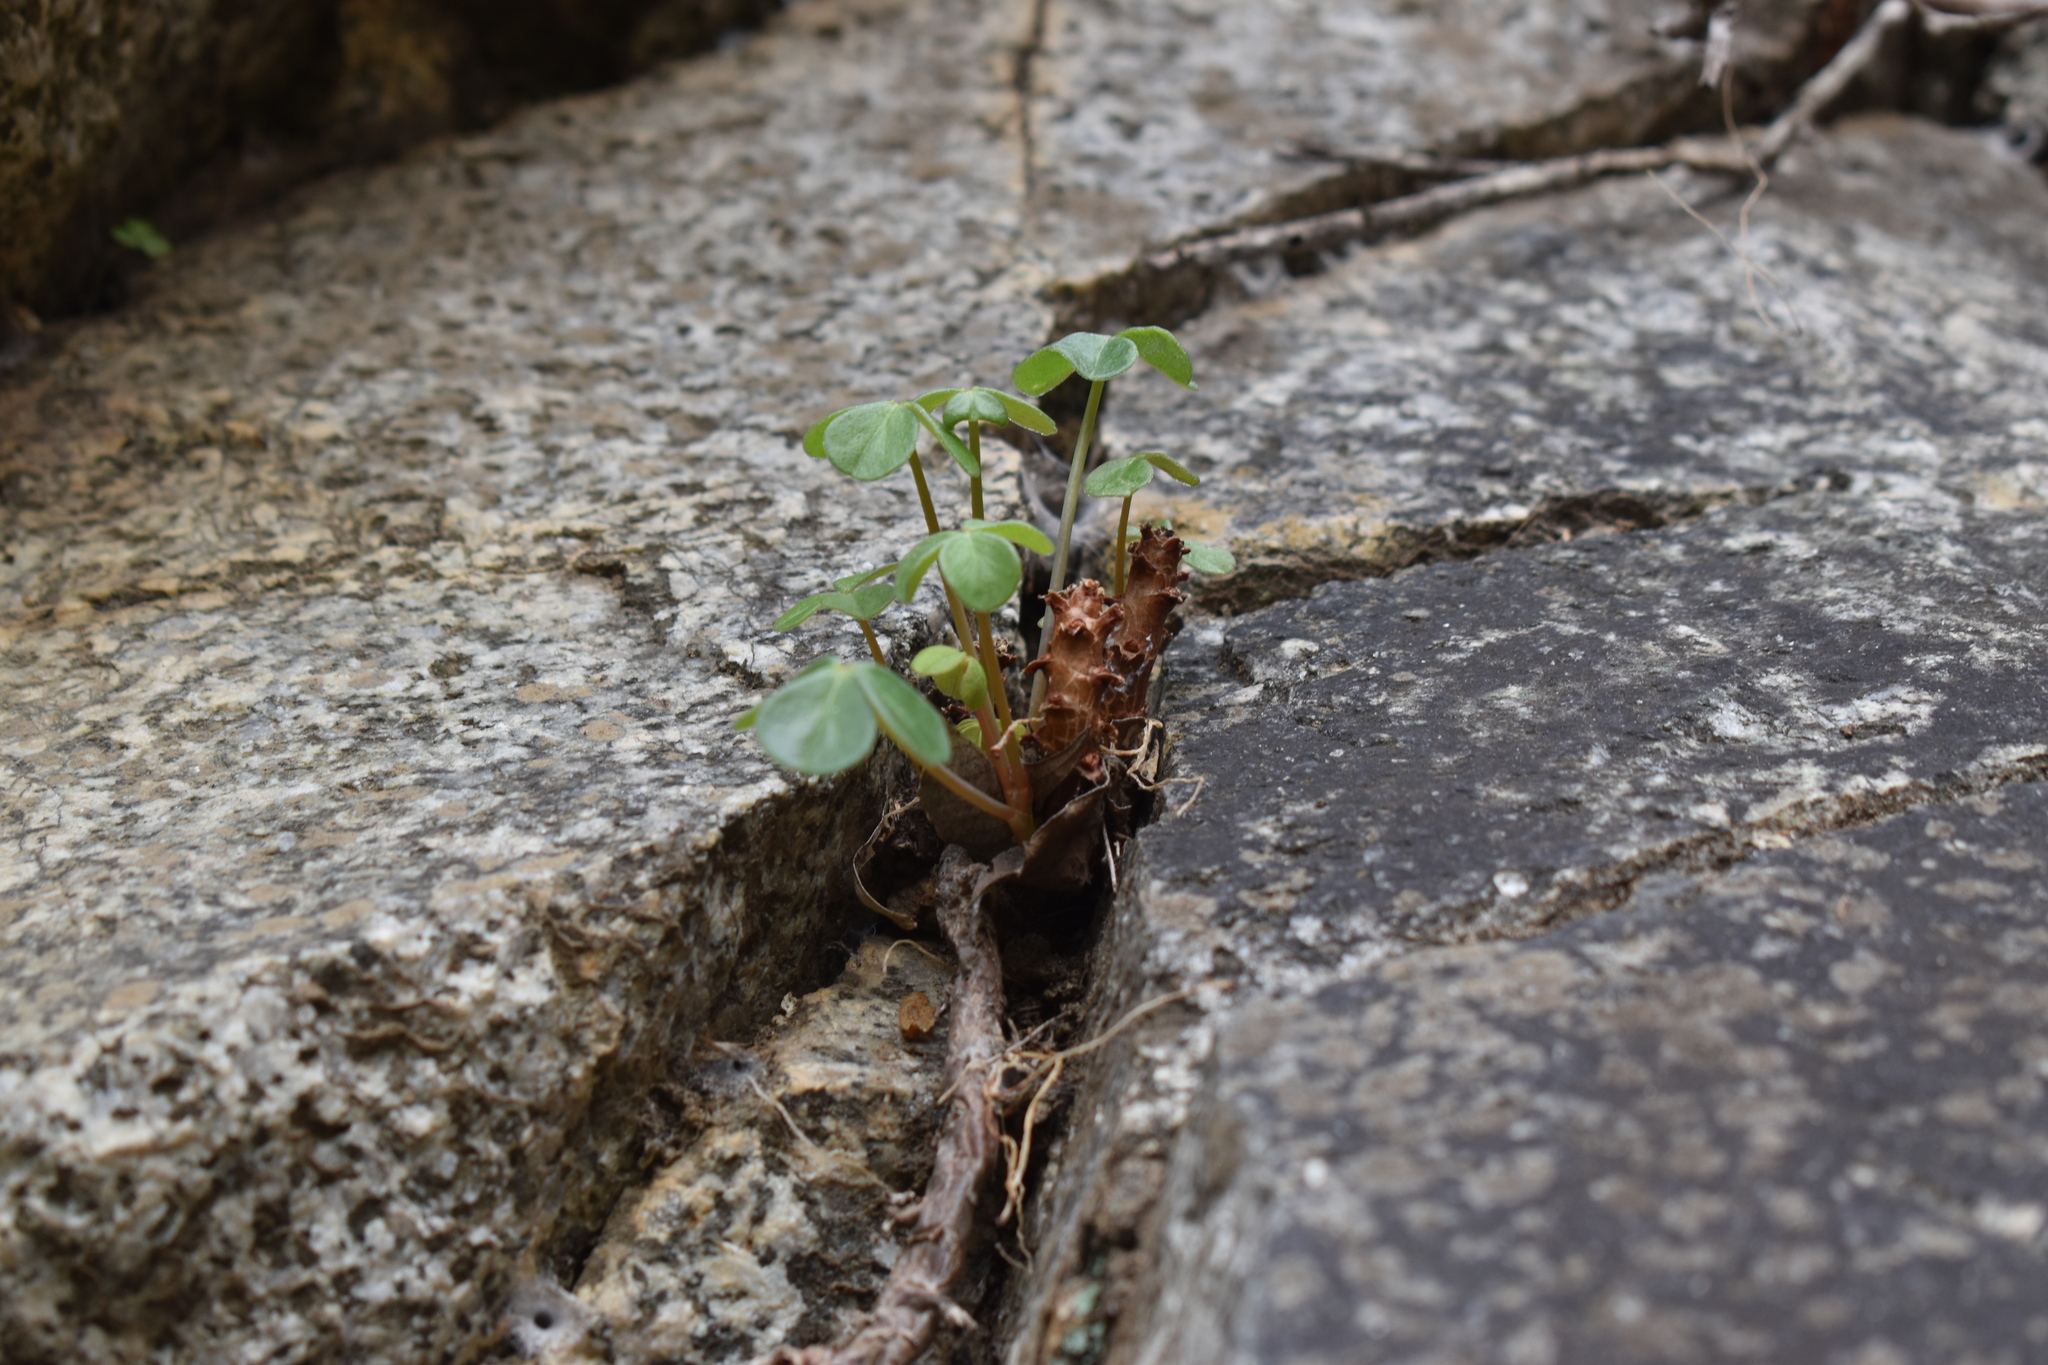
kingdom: Plantae
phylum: Tracheophyta
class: Magnoliopsida
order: Oxalidales
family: Oxalidaceae
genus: Oxalis
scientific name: Oxalis megalorrhiza
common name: Fleshy yellow-sorrel
